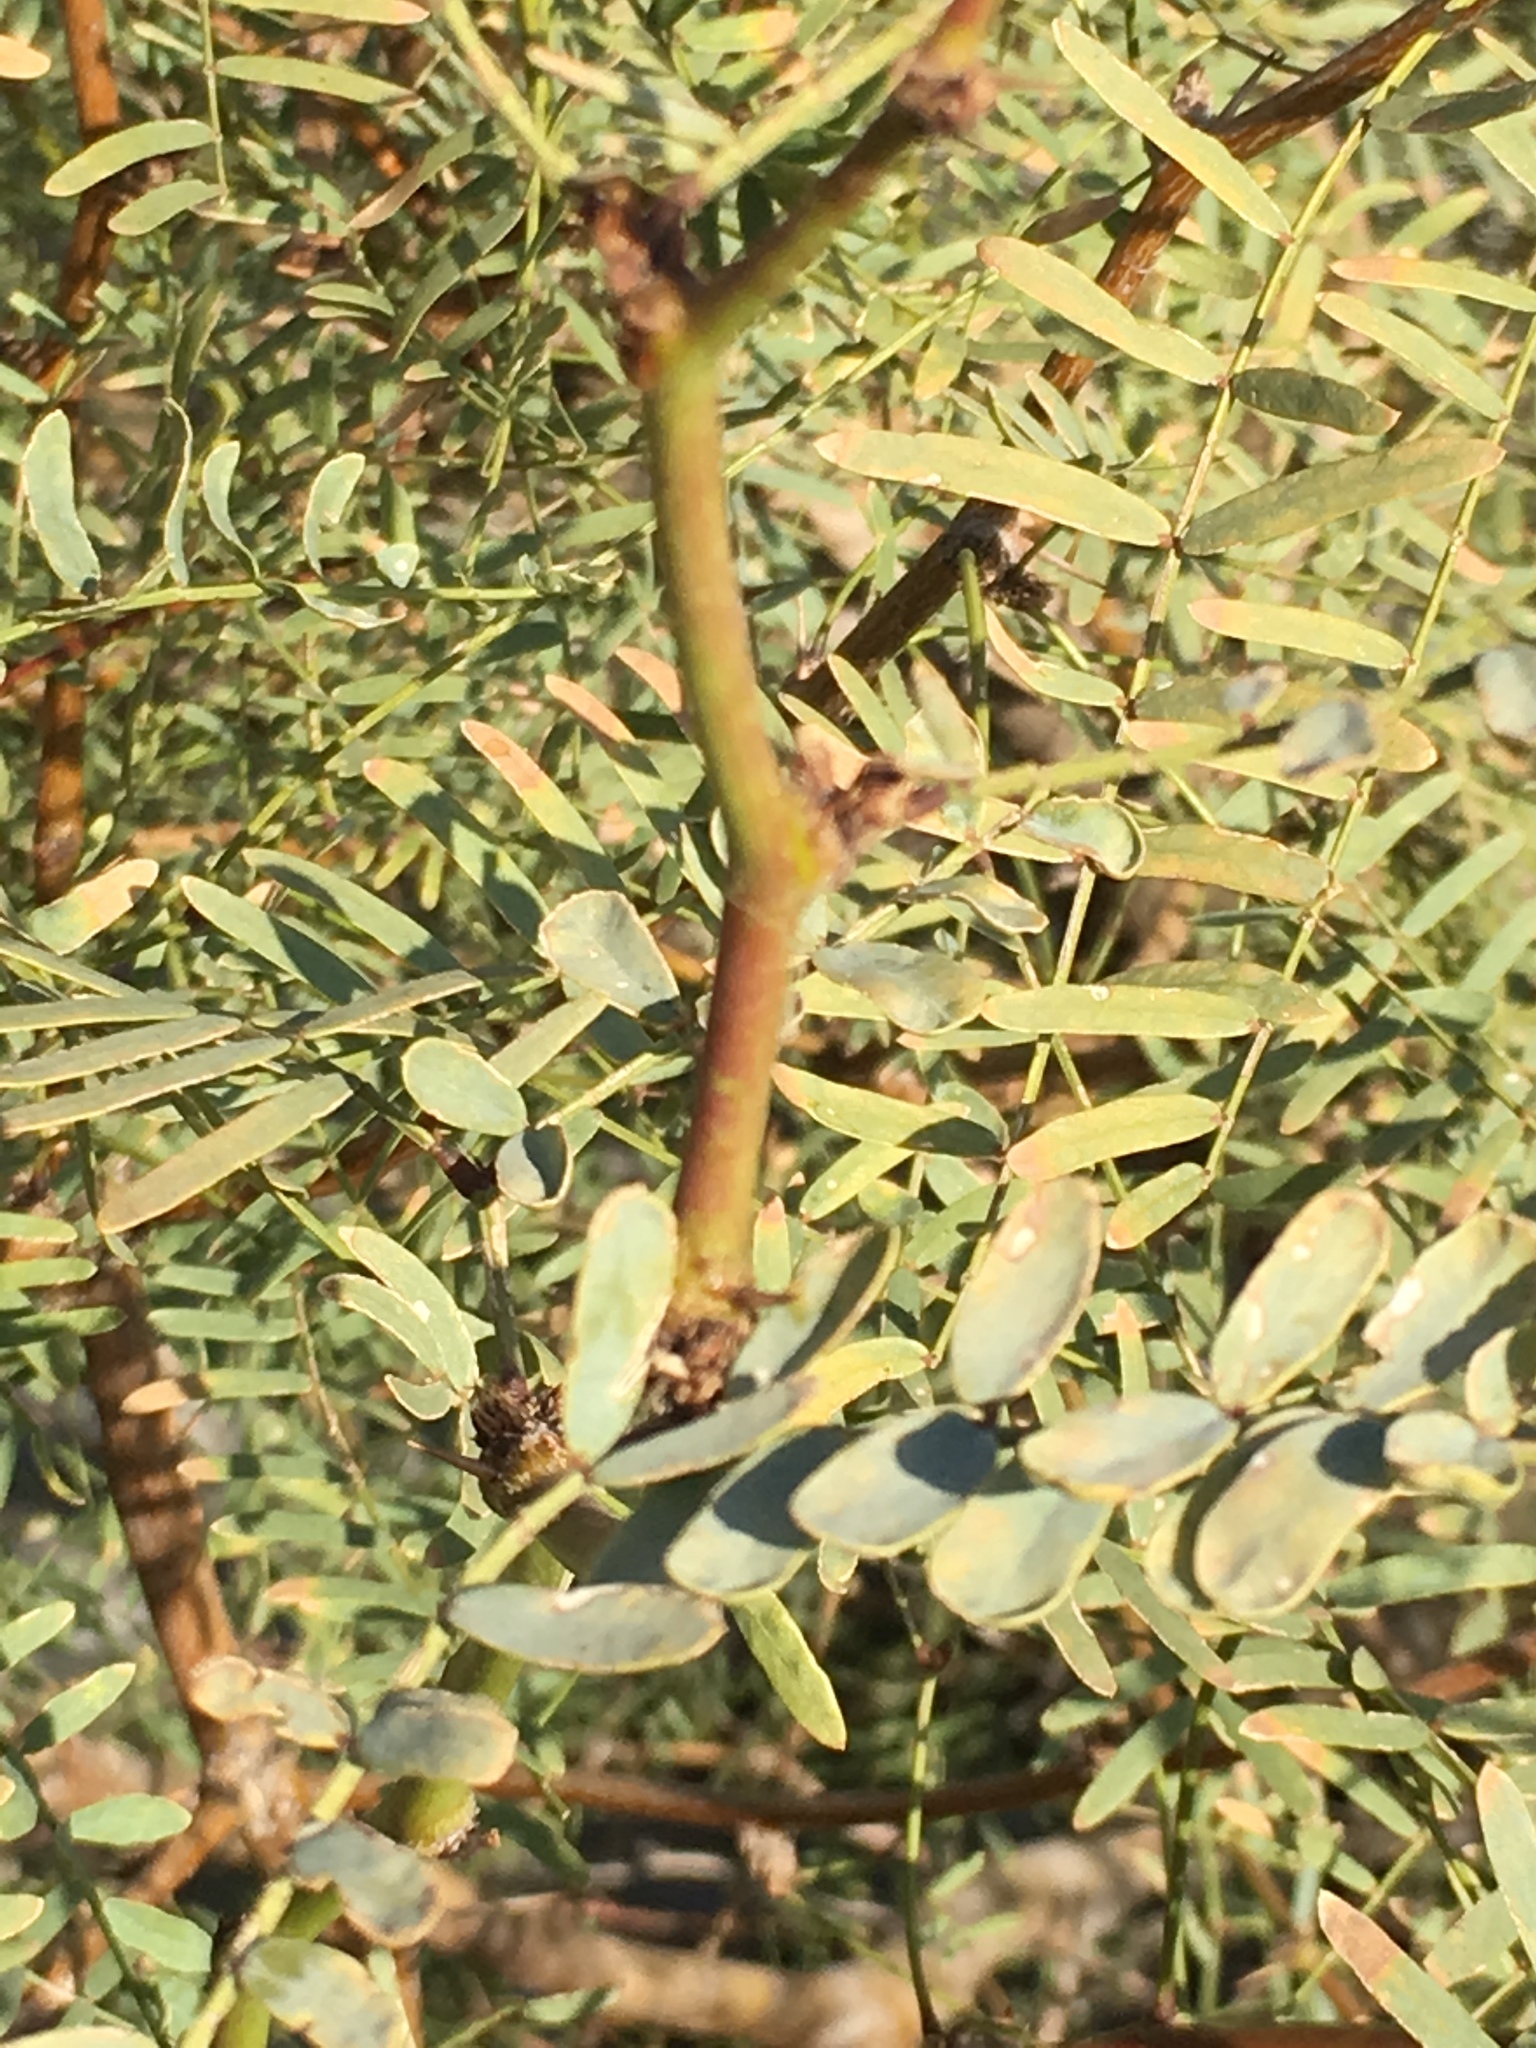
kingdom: Plantae
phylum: Tracheophyta
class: Magnoliopsida
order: Fabales
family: Fabaceae
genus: Prosopis
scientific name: Prosopis pubescens
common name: Screw-bean
